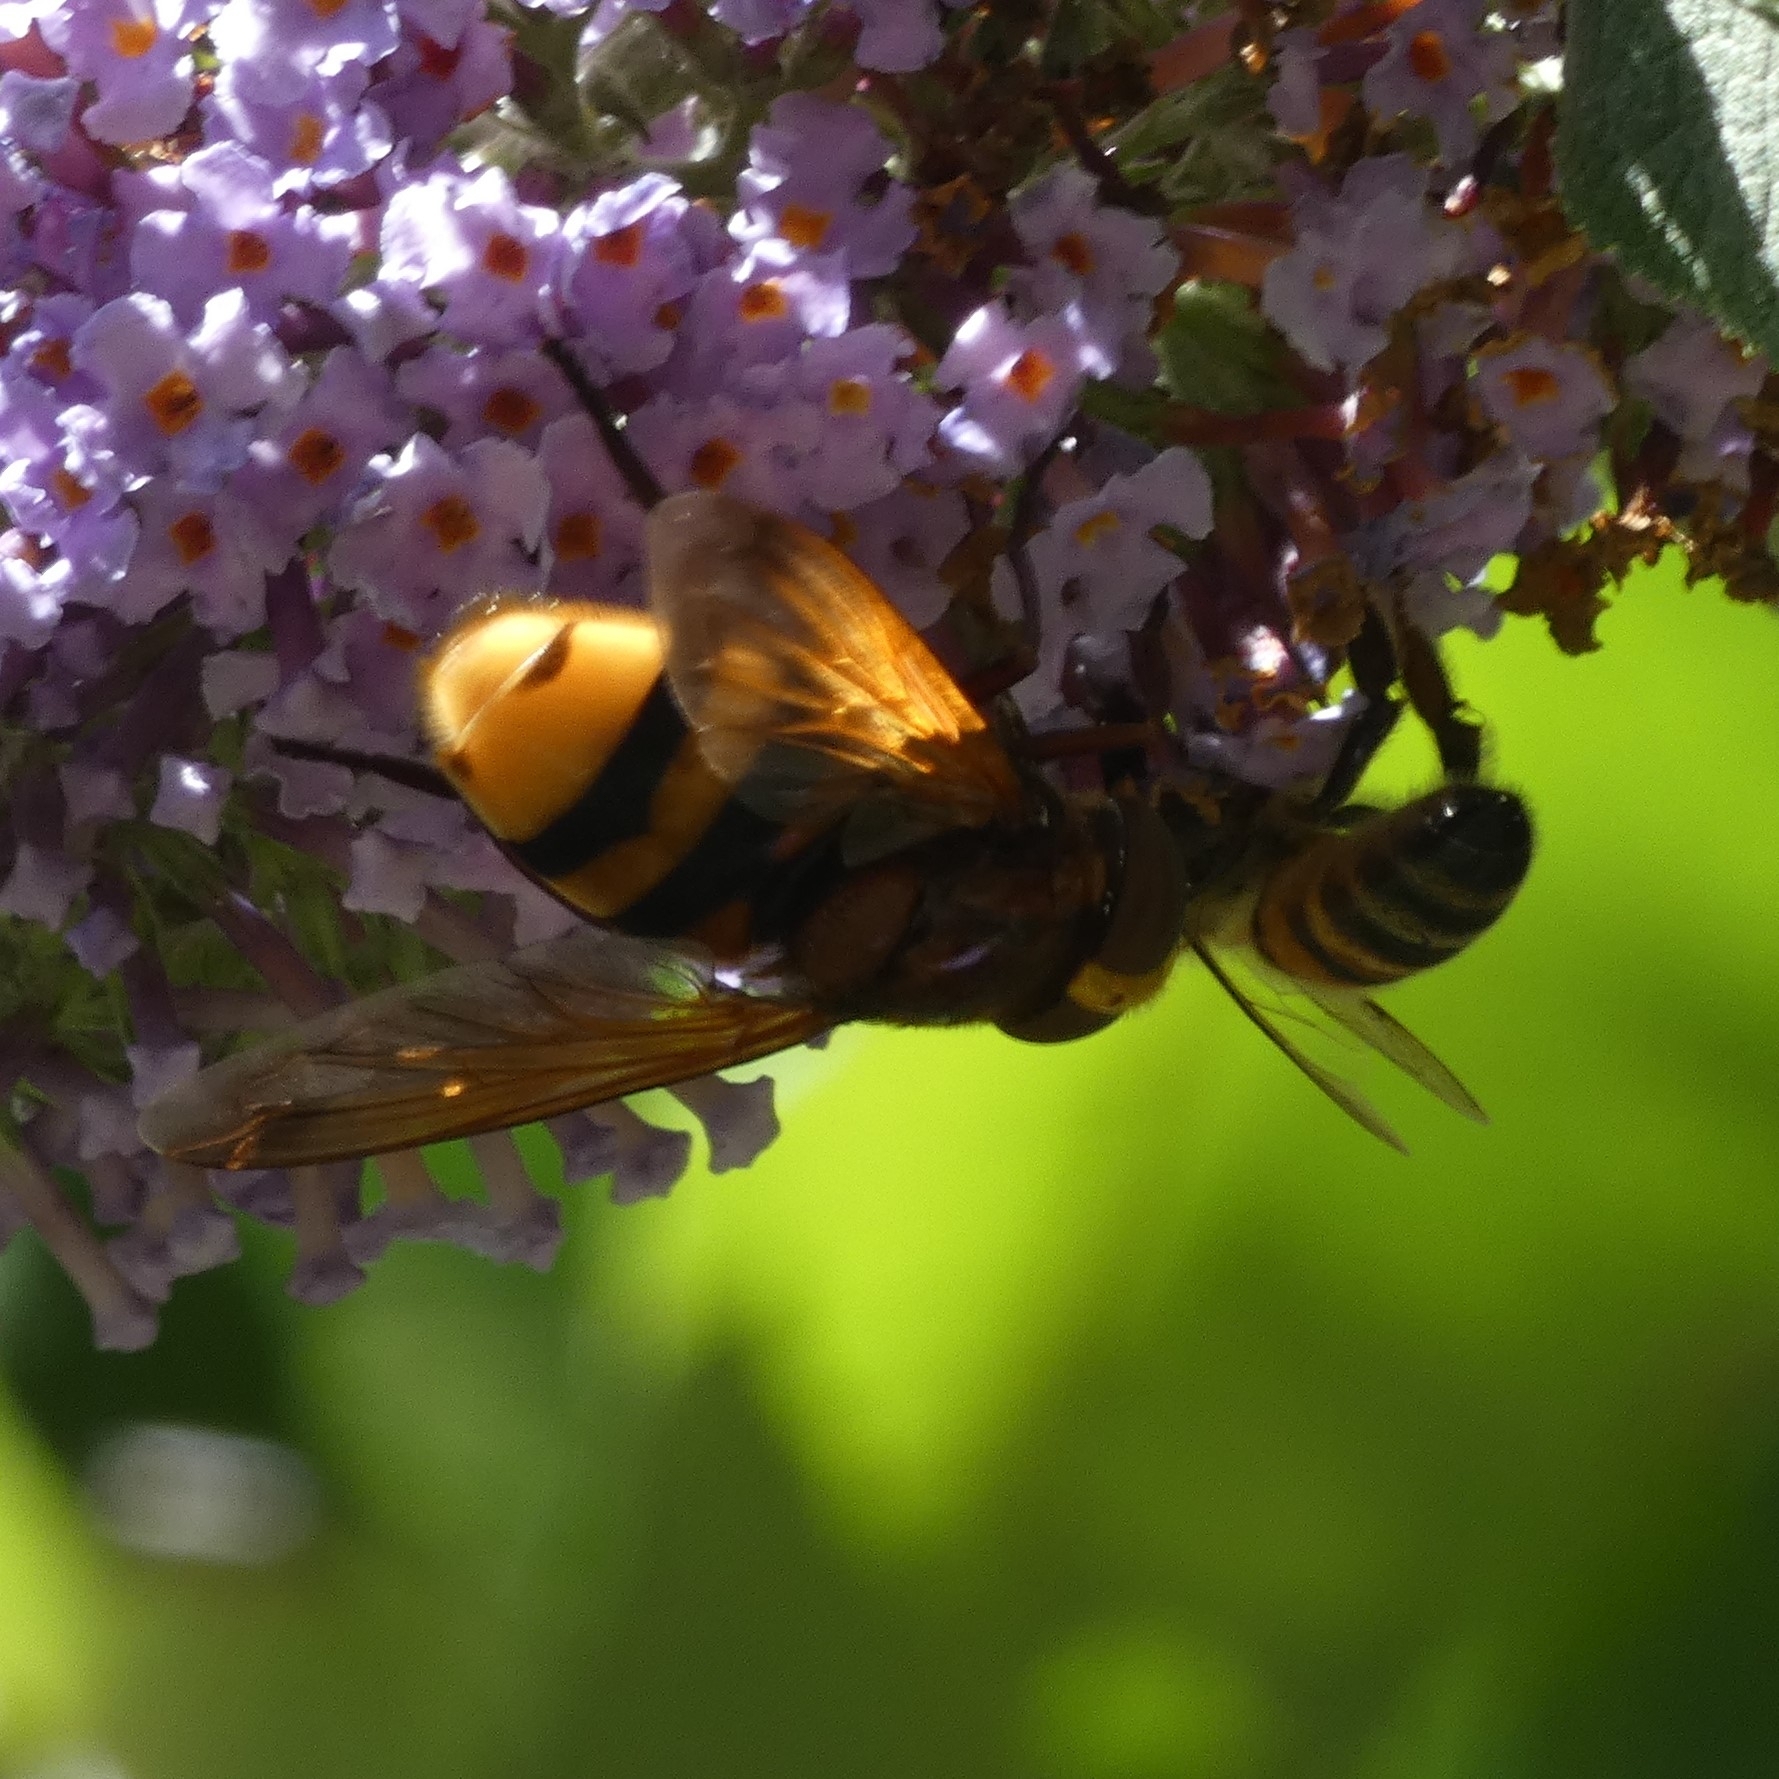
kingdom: Animalia
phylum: Arthropoda
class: Insecta
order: Diptera
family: Syrphidae
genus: Volucella
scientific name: Volucella zonaria
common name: Hornet hoverfly
